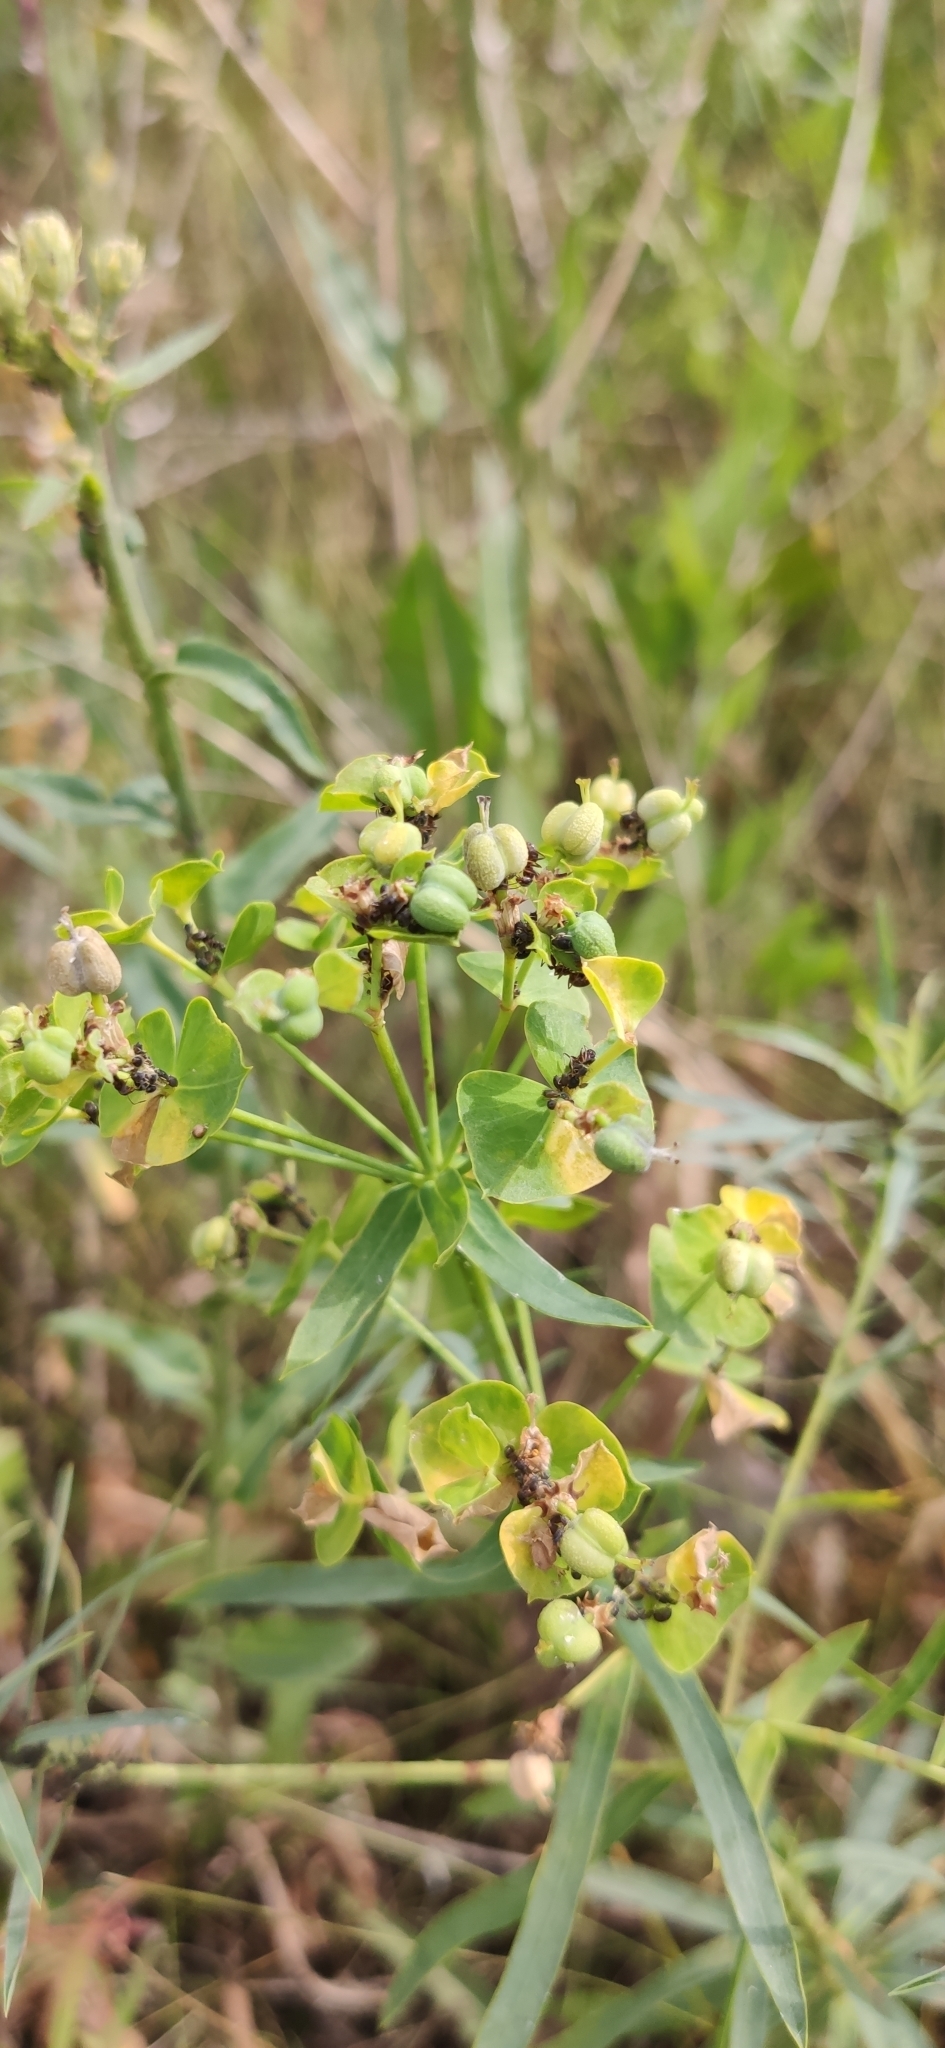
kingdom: Plantae
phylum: Tracheophyta
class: Magnoliopsida
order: Malpighiales
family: Euphorbiaceae
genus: Euphorbia
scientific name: Euphorbia virgata
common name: Leafy spurge
